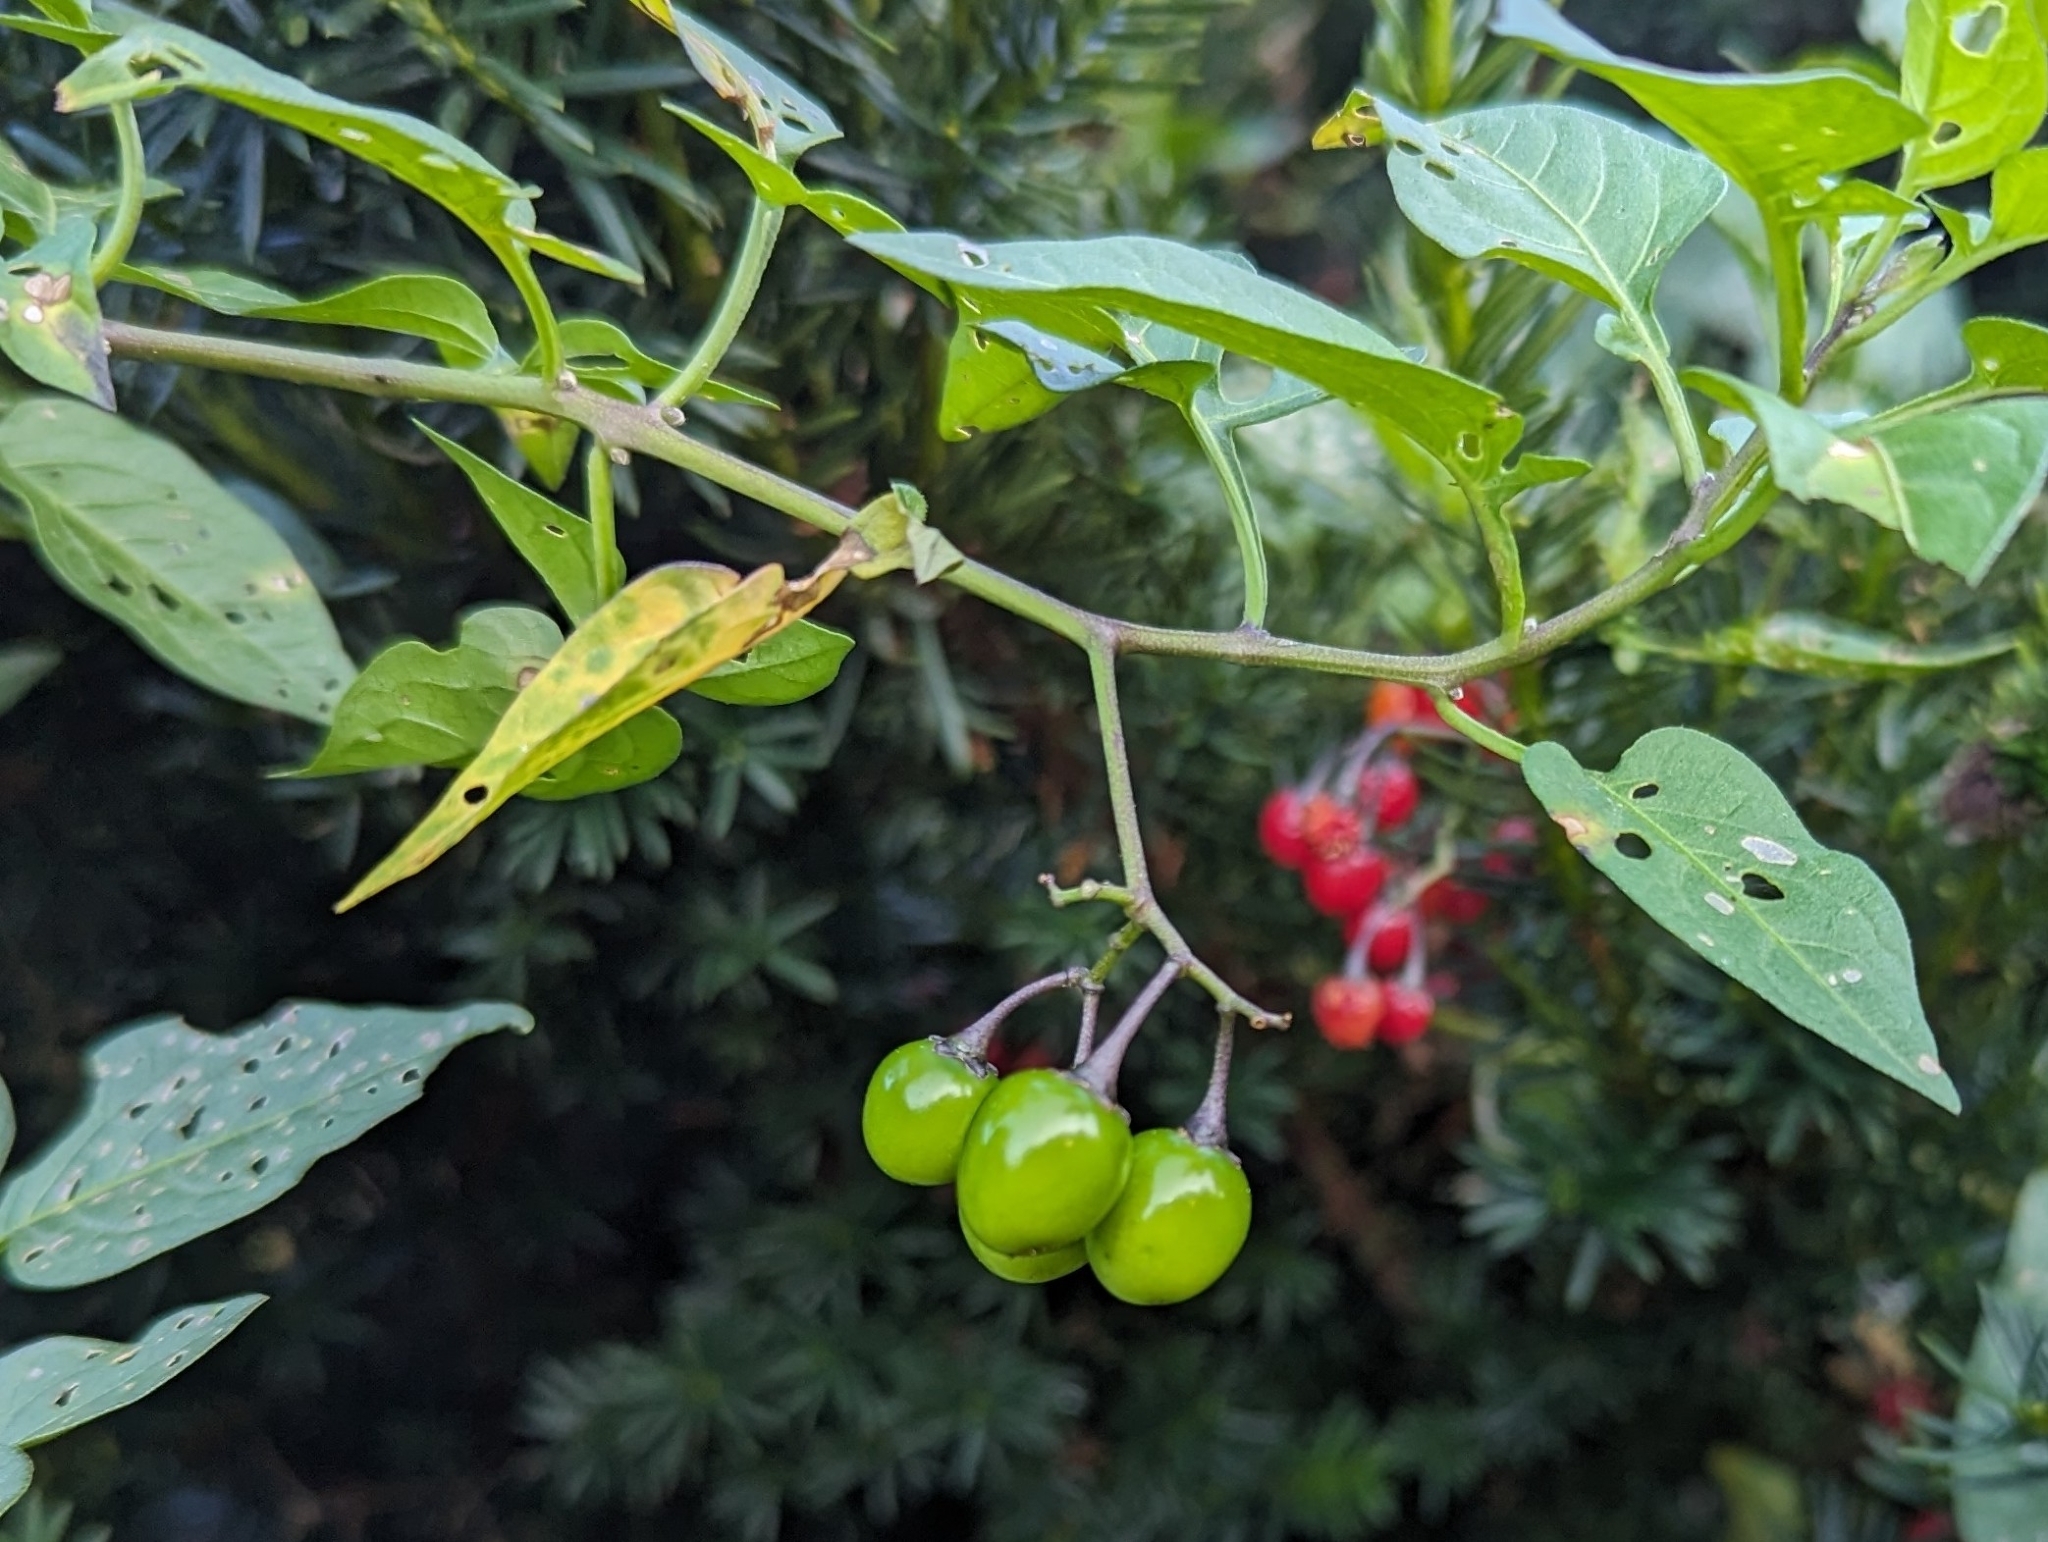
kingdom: Plantae
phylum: Tracheophyta
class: Magnoliopsida
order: Solanales
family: Solanaceae
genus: Solanum
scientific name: Solanum dulcamara
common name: Climbing nightshade
